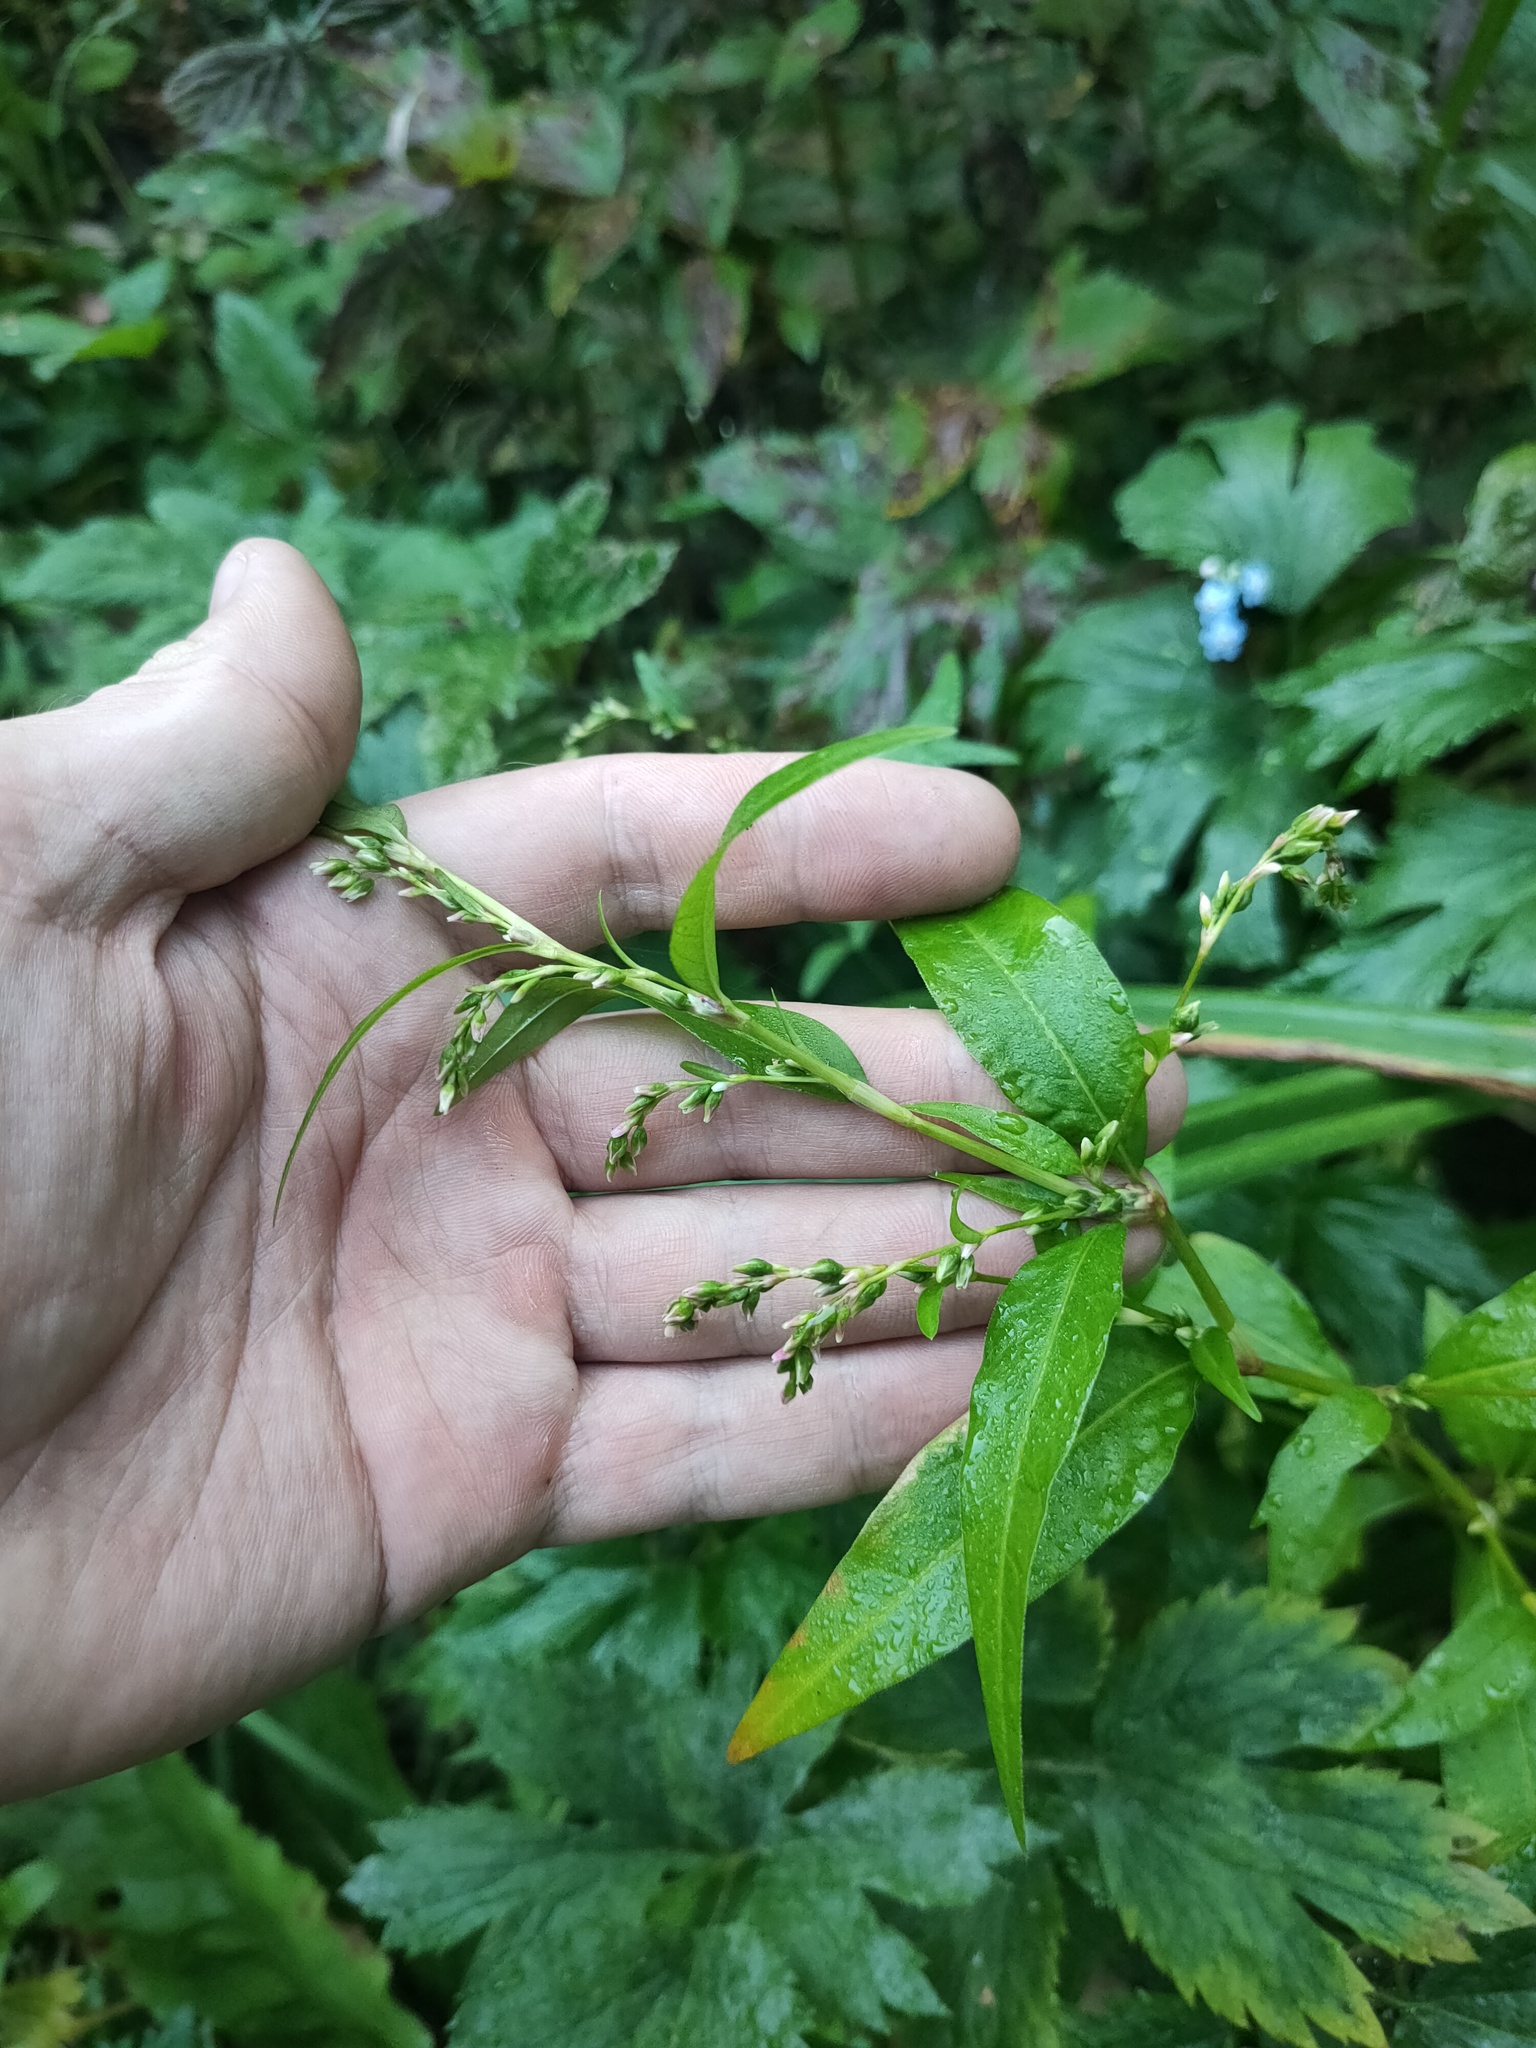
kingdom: Plantae
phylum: Tracheophyta
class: Magnoliopsida
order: Caryophyllales
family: Polygonaceae
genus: Persicaria
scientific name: Persicaria hydropiper
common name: Water-pepper
